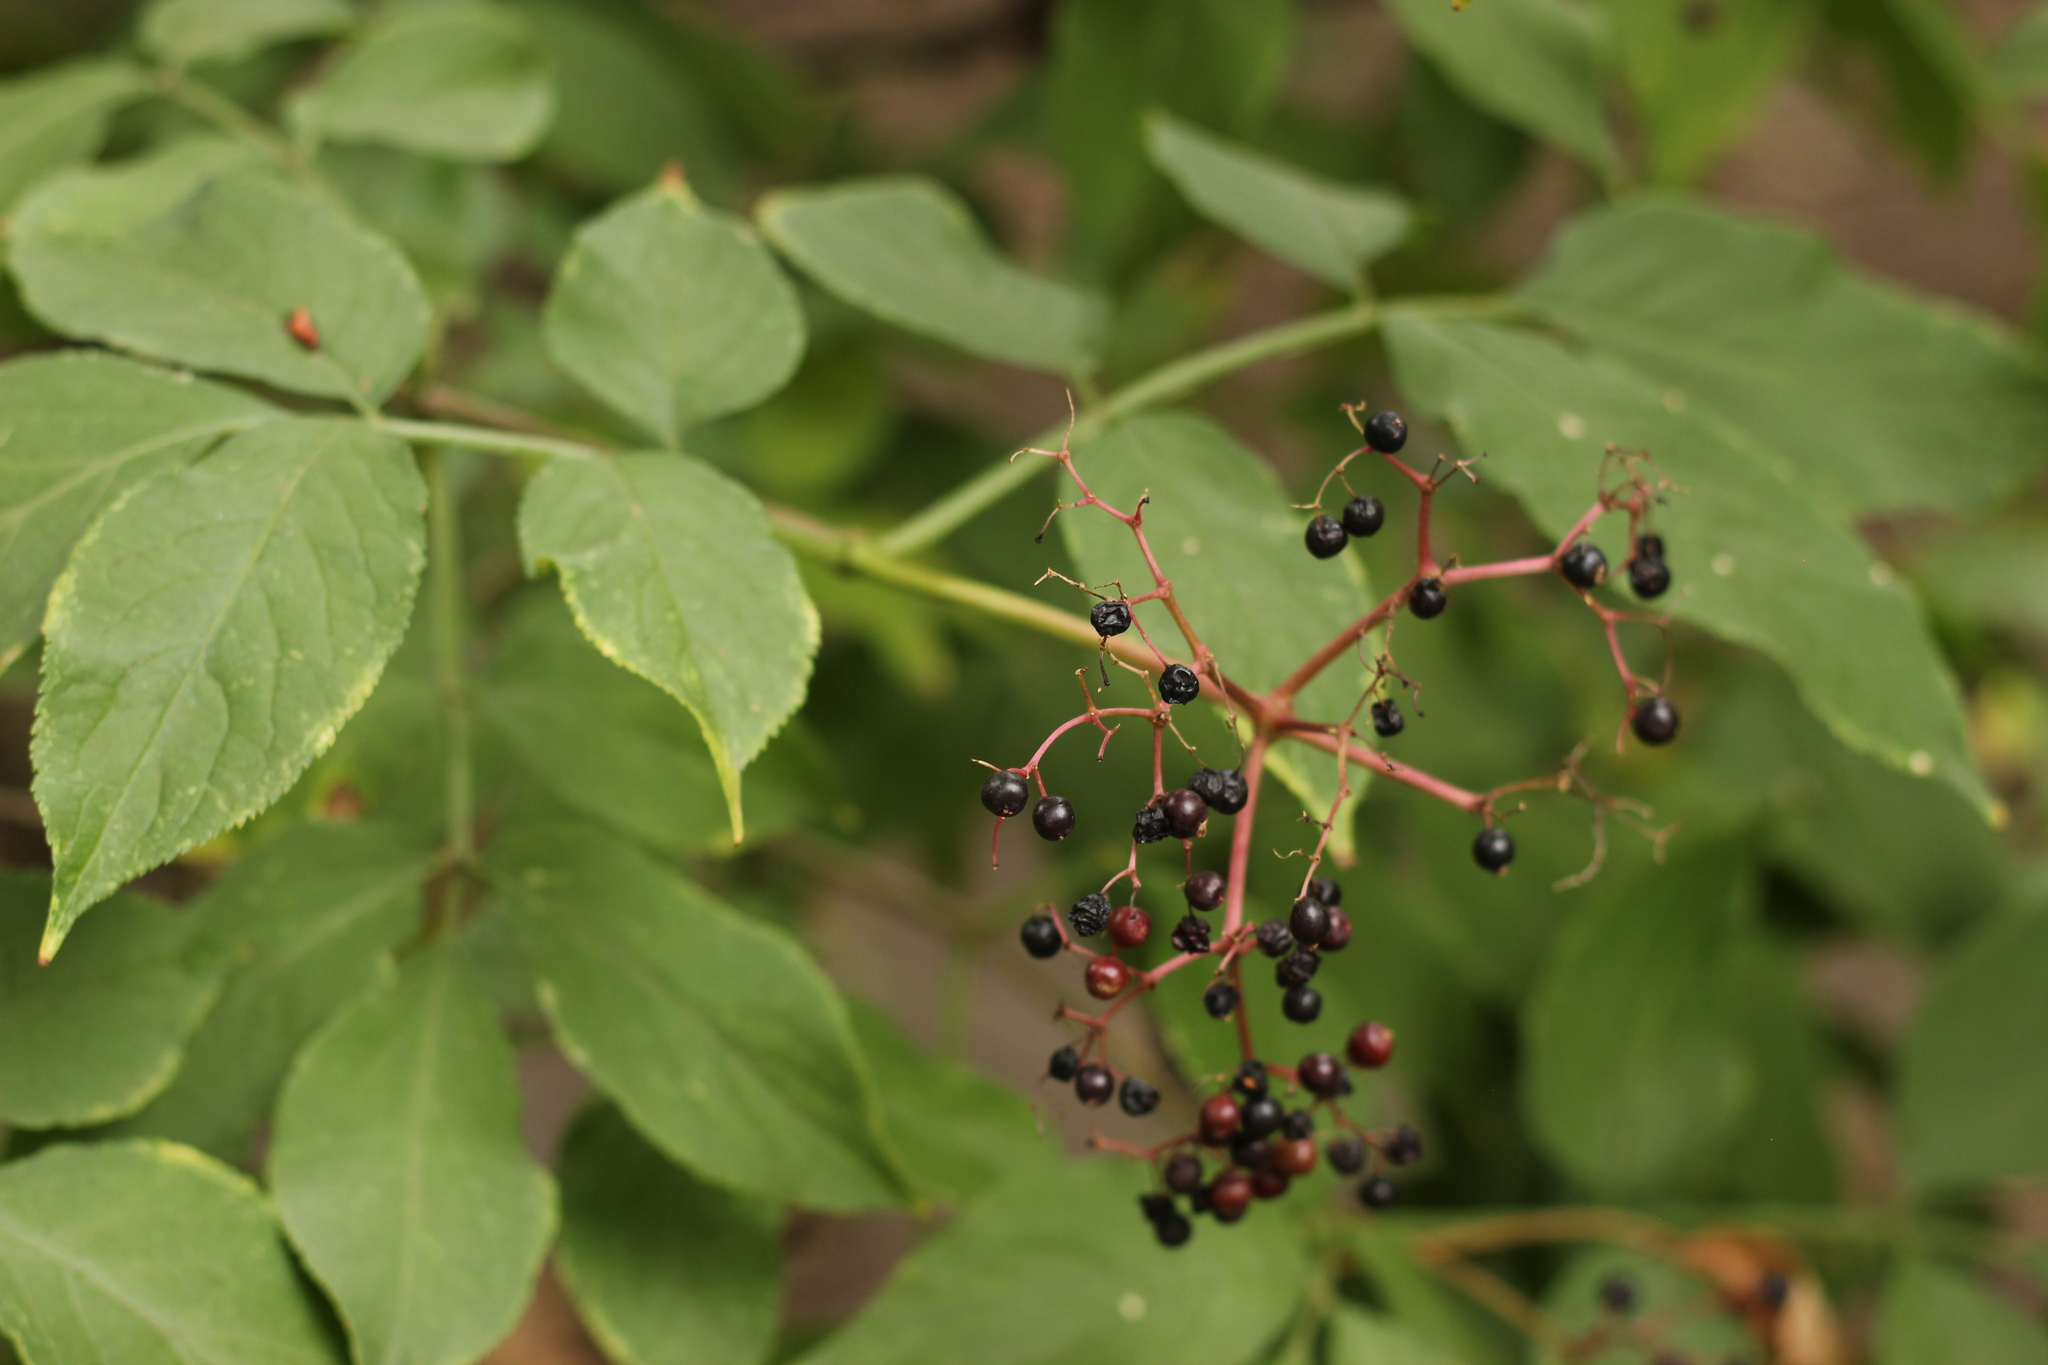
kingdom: Plantae
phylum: Tracheophyta
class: Magnoliopsida
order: Dipsacales
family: Viburnaceae
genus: Sambucus
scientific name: Sambucus nigra
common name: Elder
